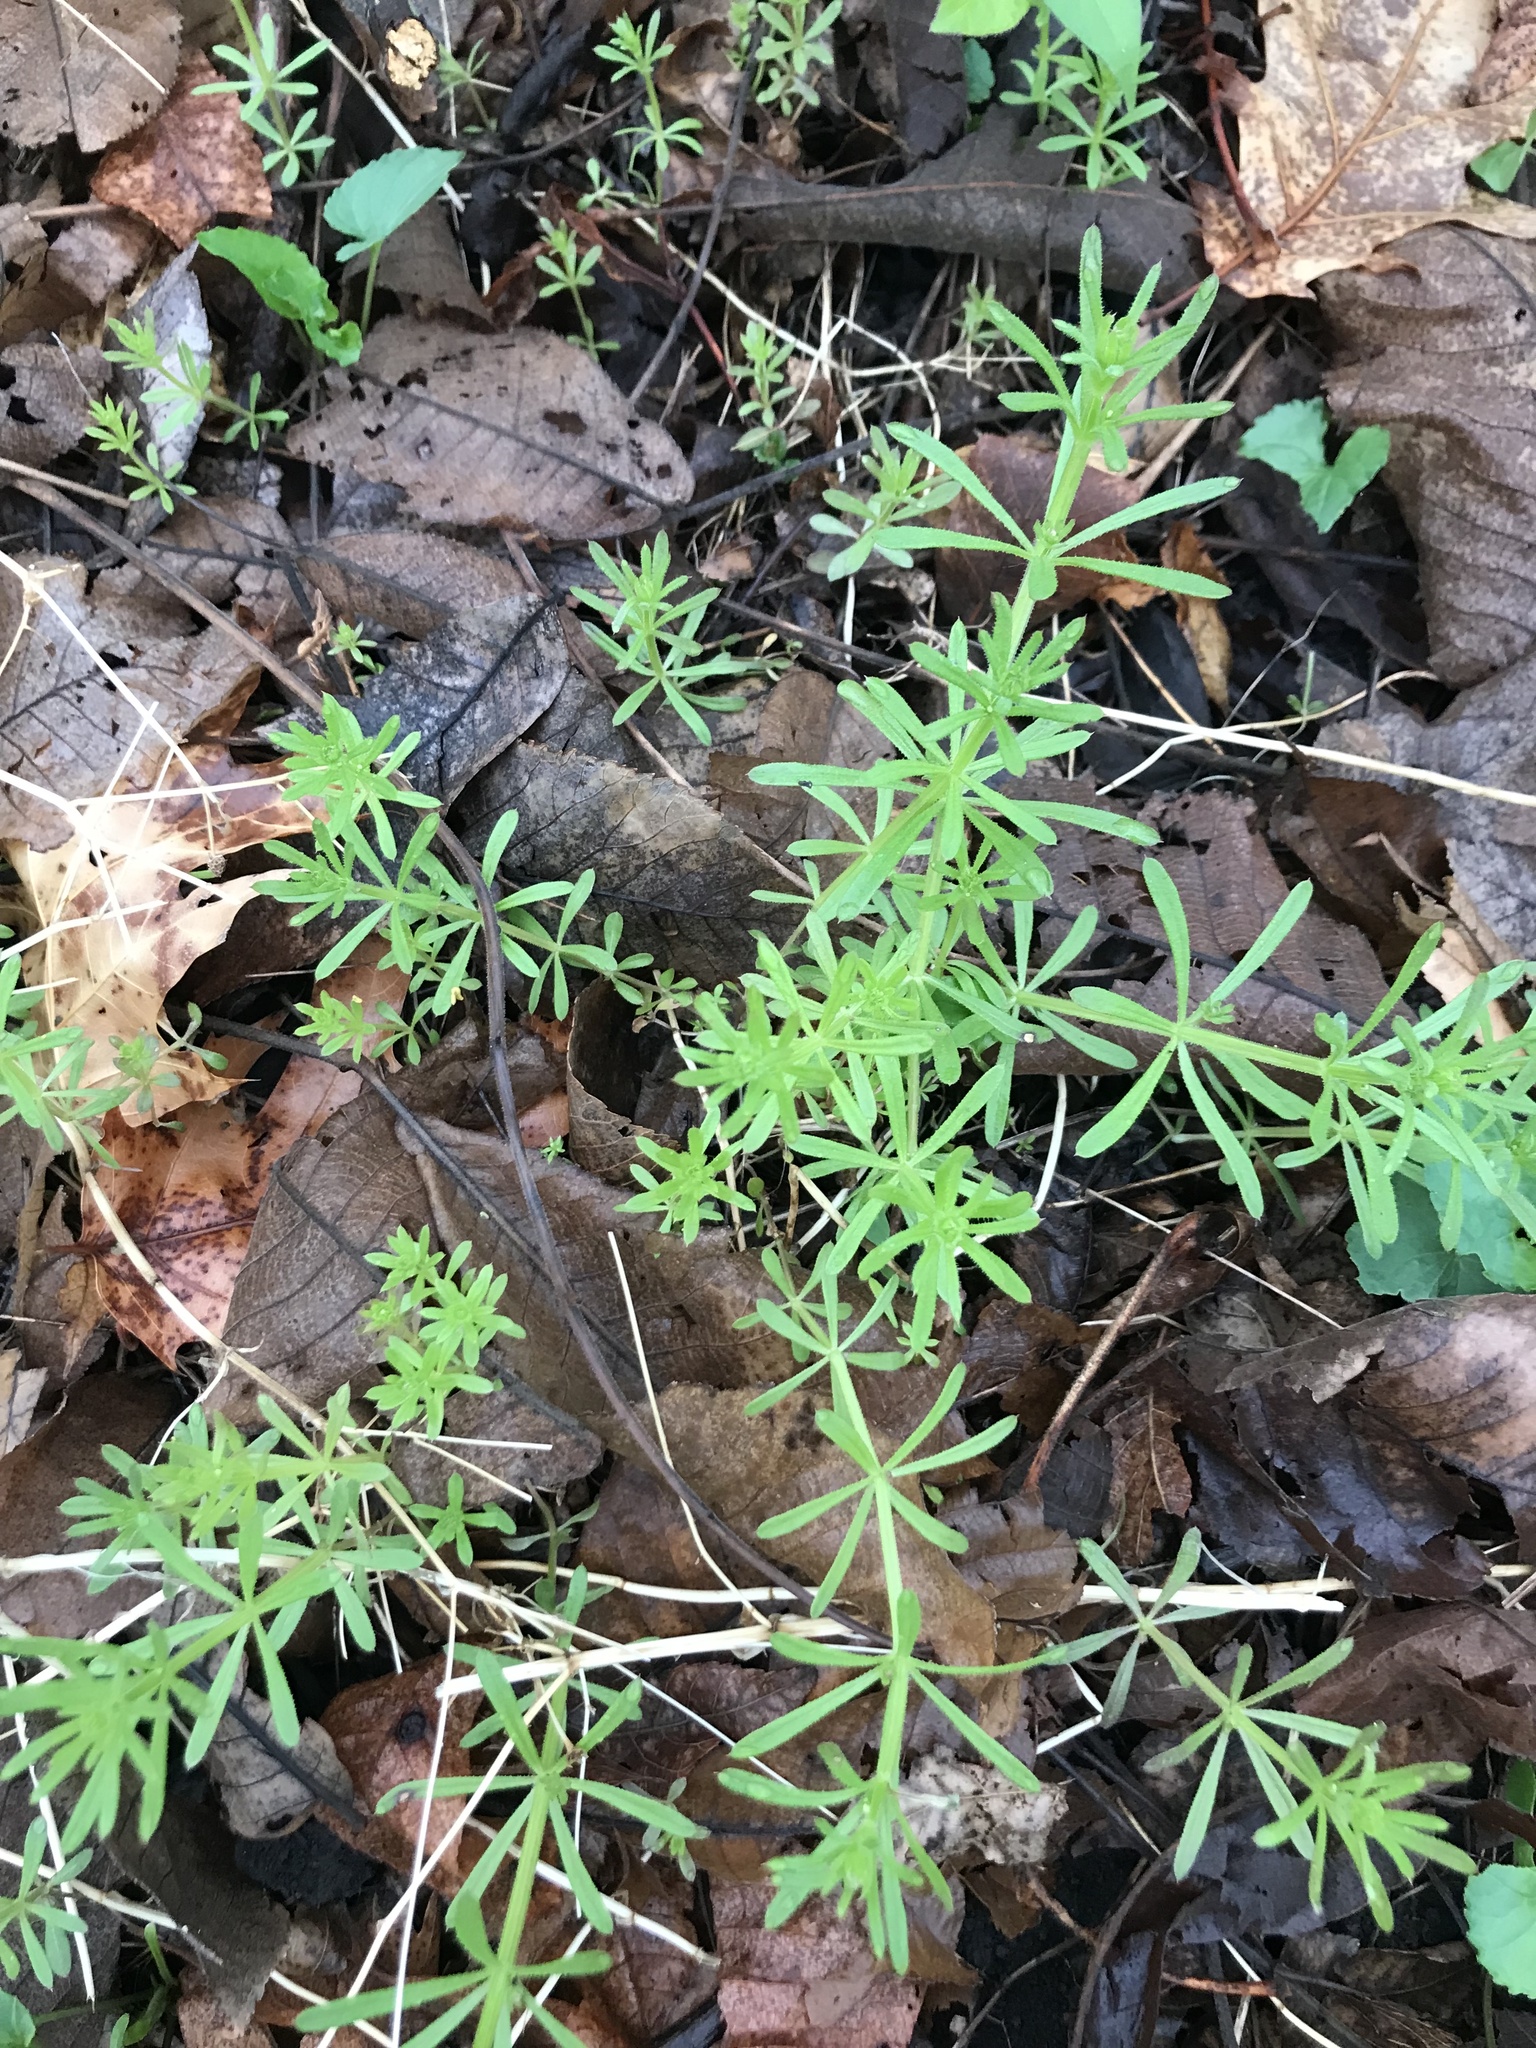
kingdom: Plantae
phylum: Tracheophyta
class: Magnoliopsida
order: Gentianales
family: Rubiaceae
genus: Galium
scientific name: Galium aparine
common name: Cleavers
